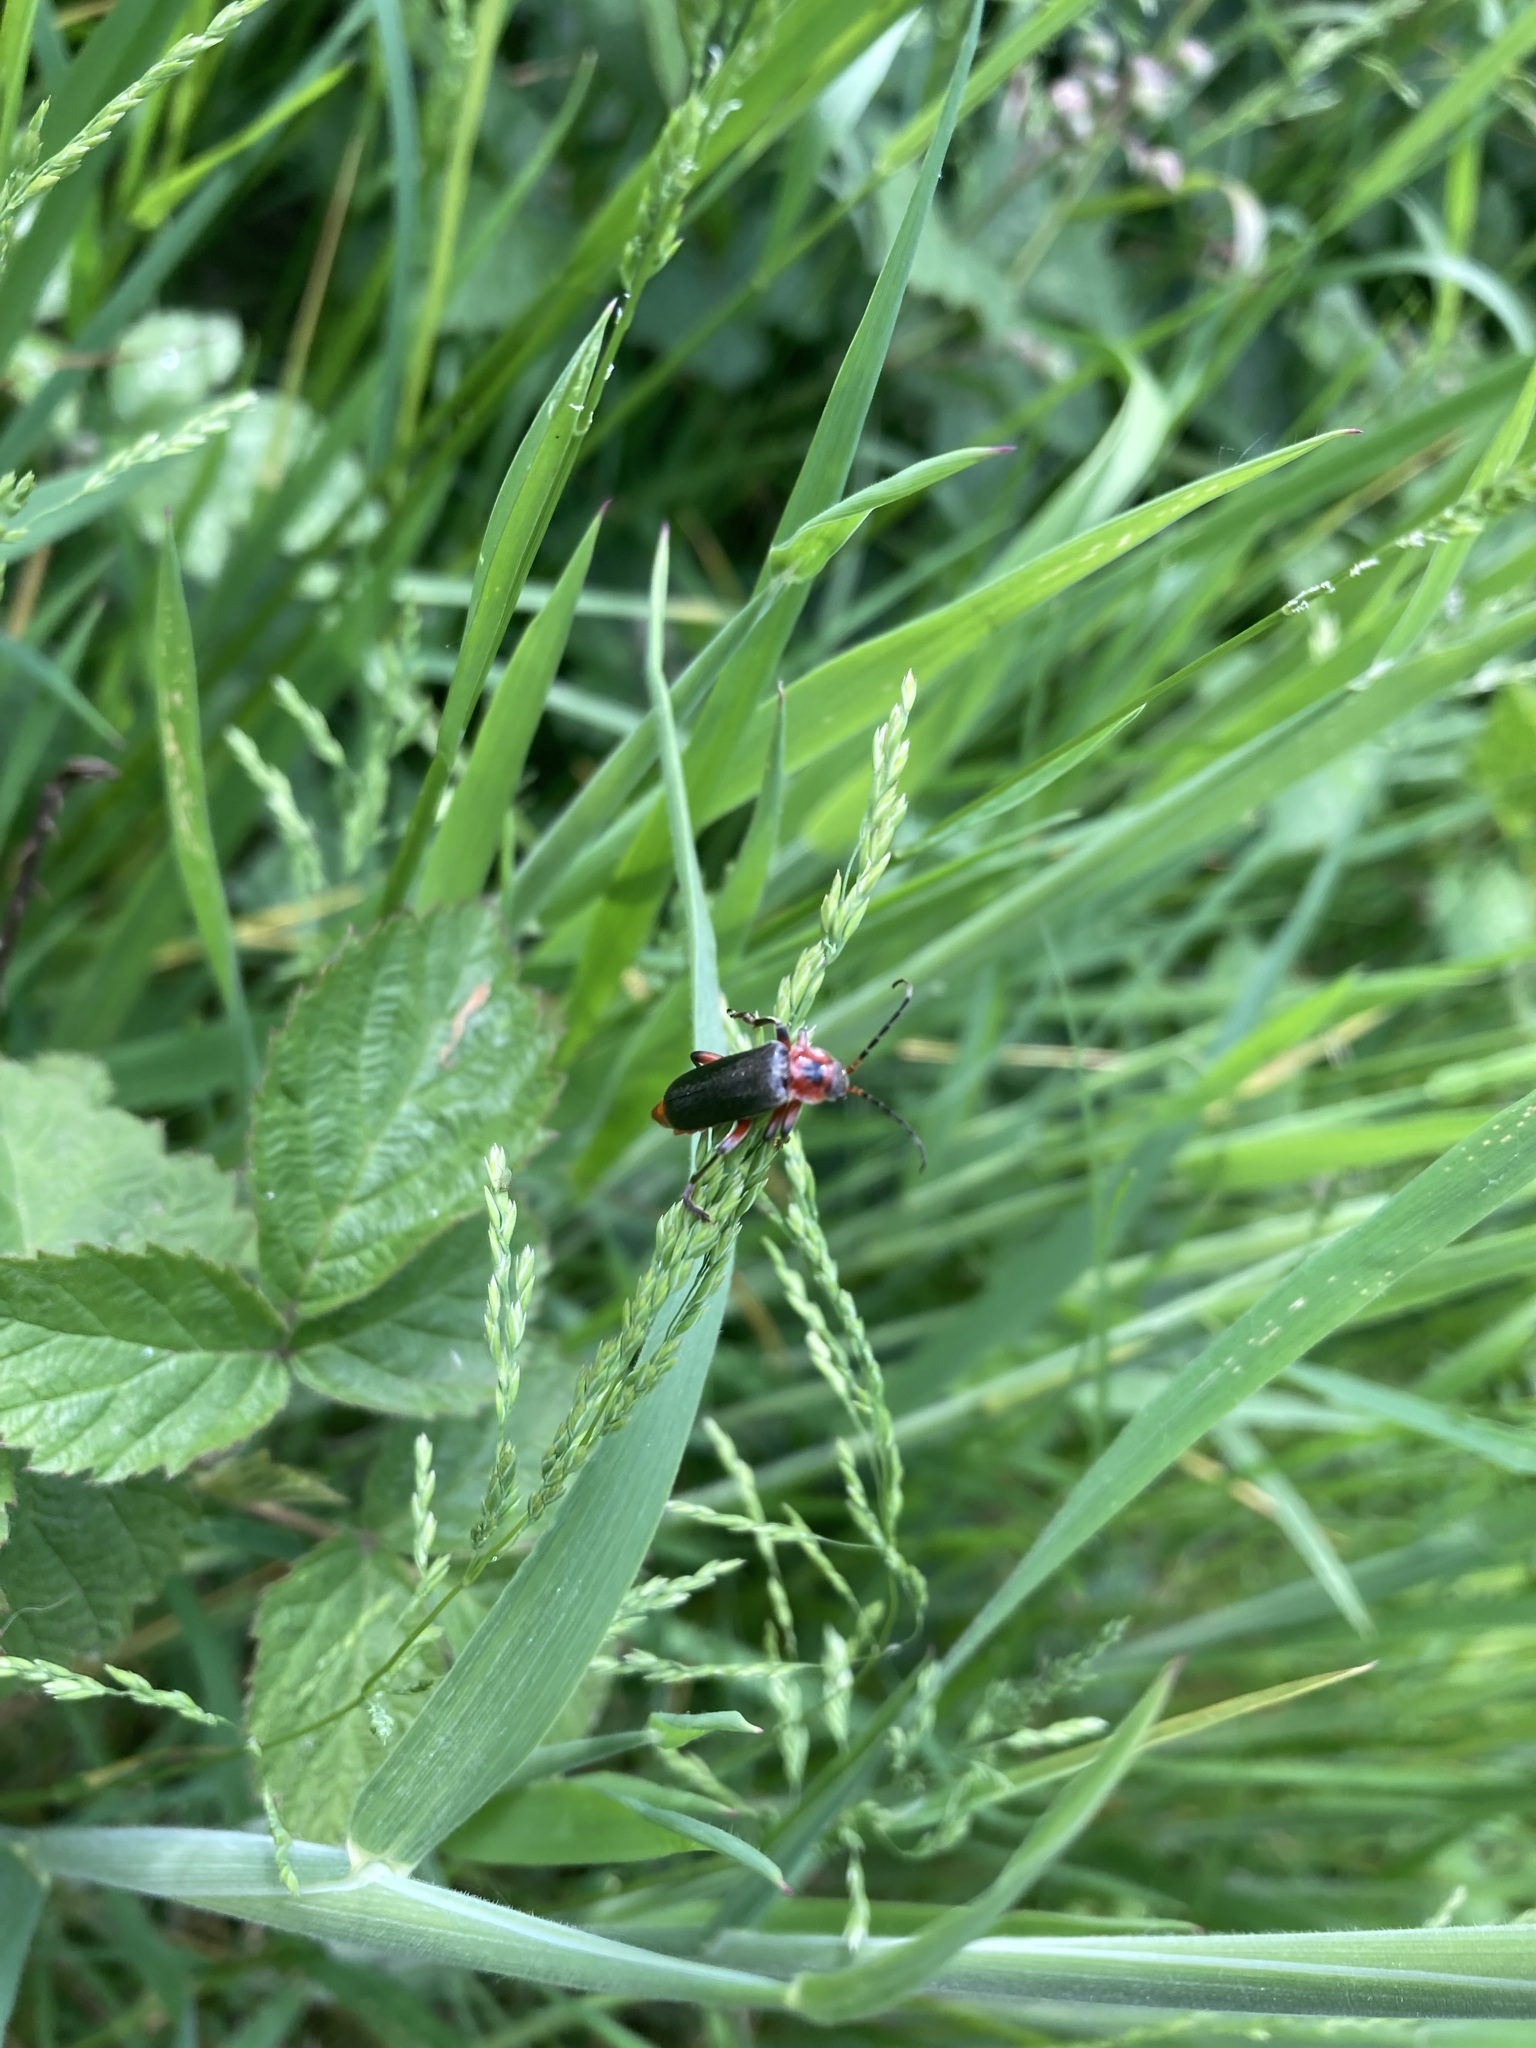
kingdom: Animalia
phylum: Arthropoda
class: Insecta
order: Coleoptera
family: Cantharidae
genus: Cantharis
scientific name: Cantharis rustica
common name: Soldier beetle
